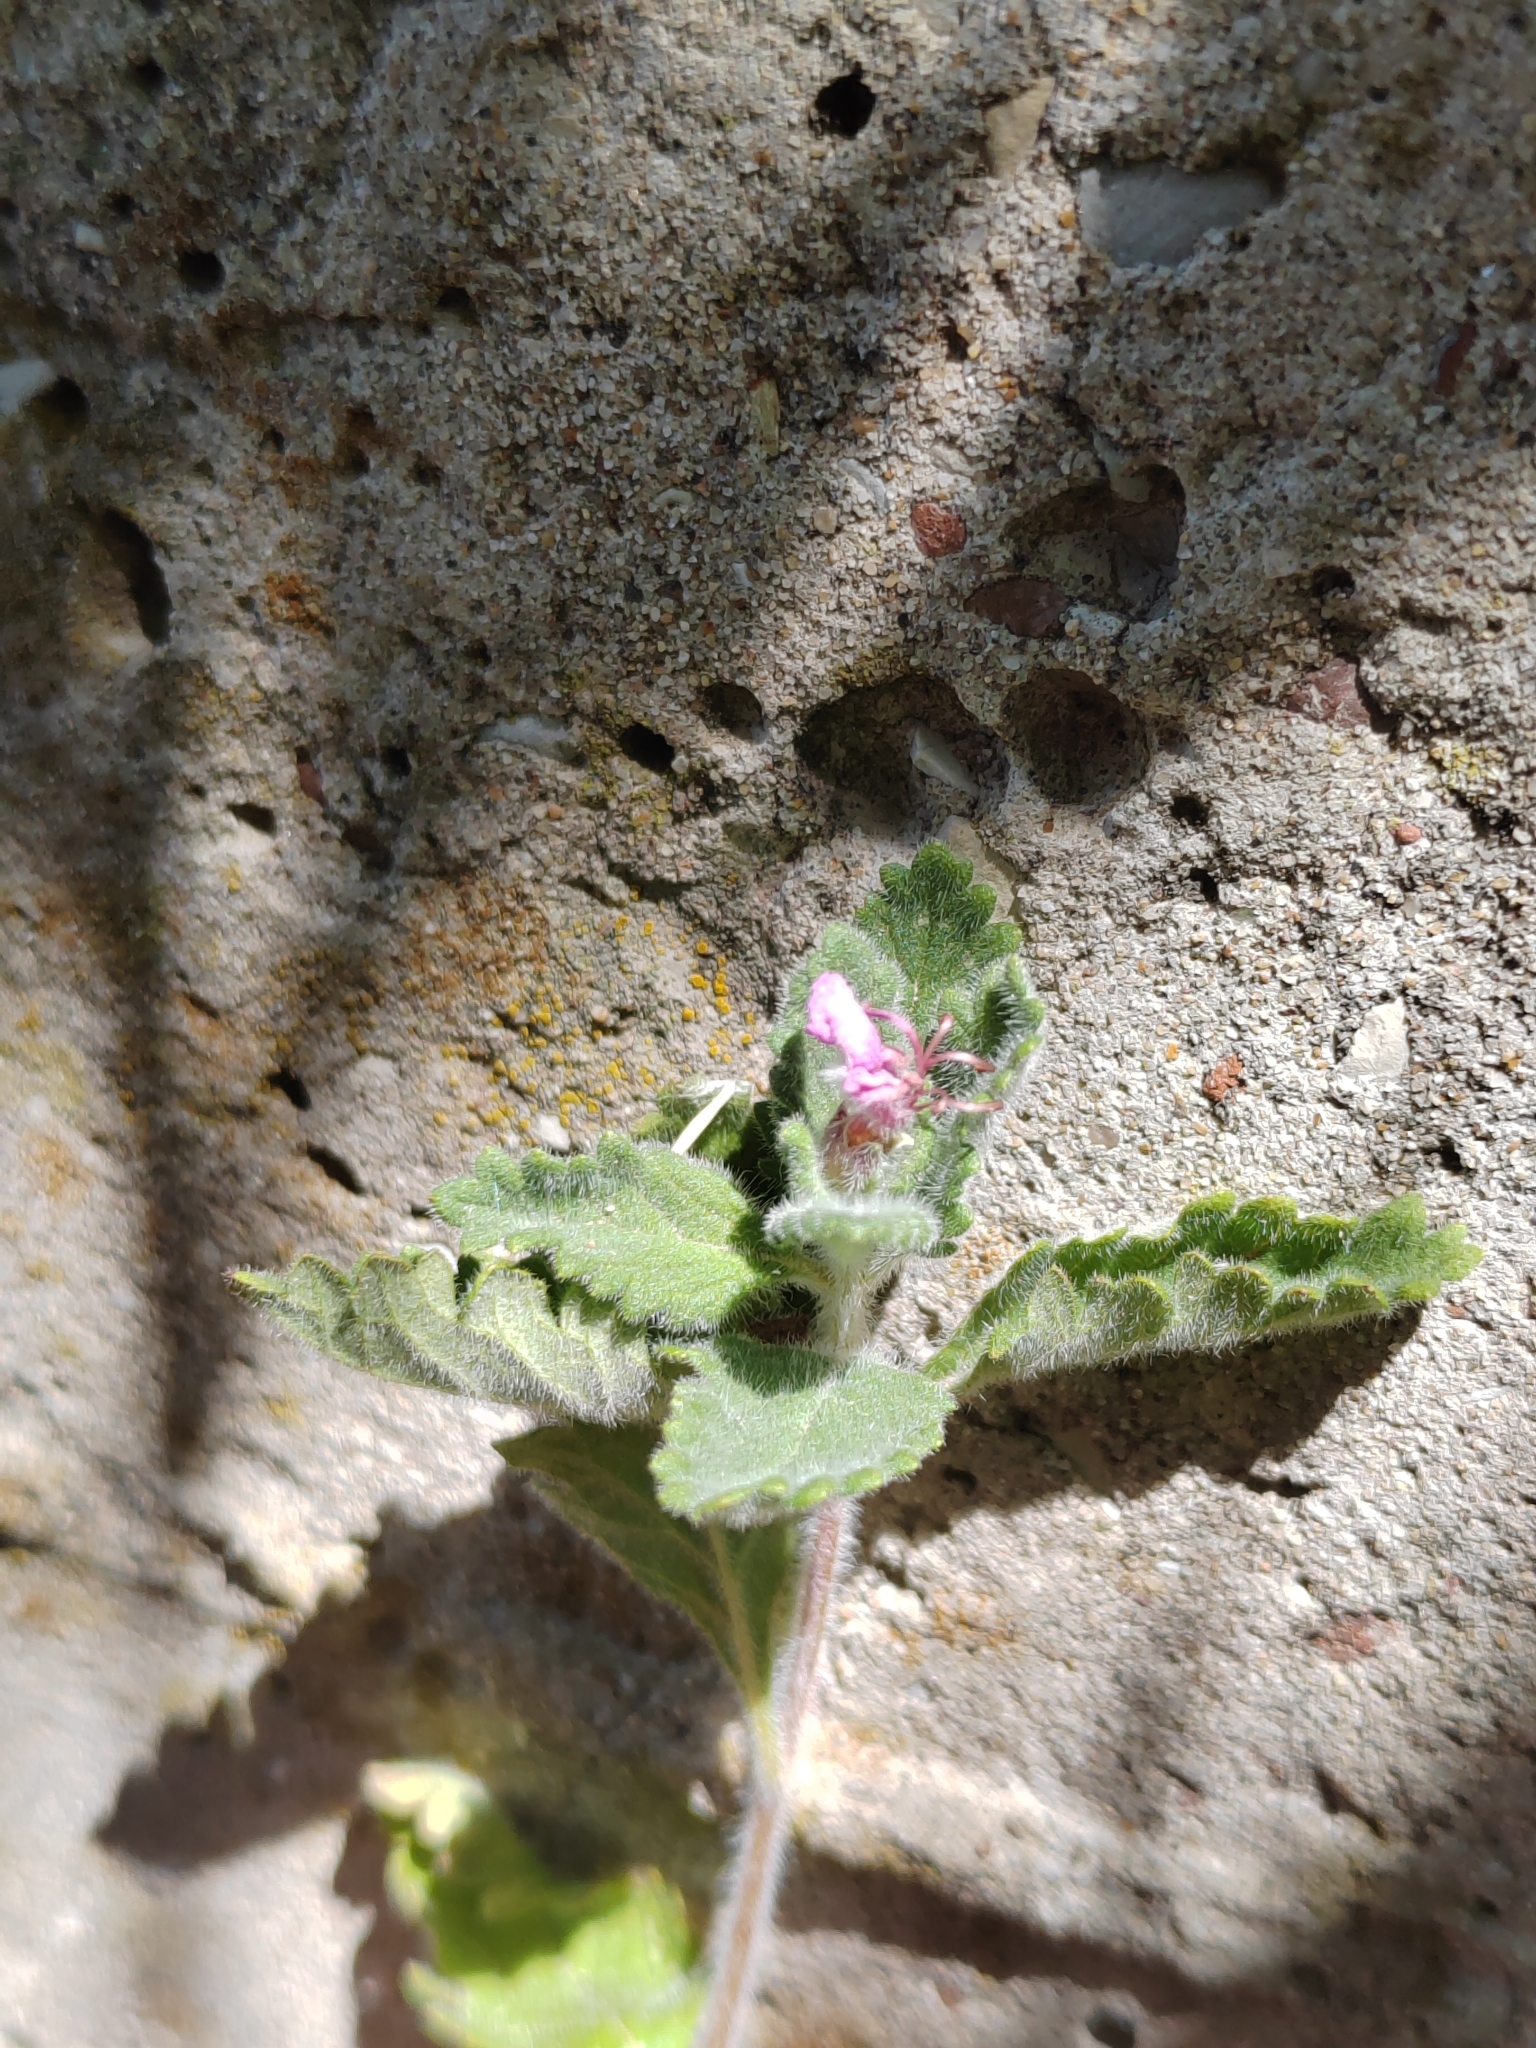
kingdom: Plantae
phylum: Tracheophyta
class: Magnoliopsida
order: Lamiales
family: Lamiaceae
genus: Teucrium
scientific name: Teucrium chamaedrys
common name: Wall germander
